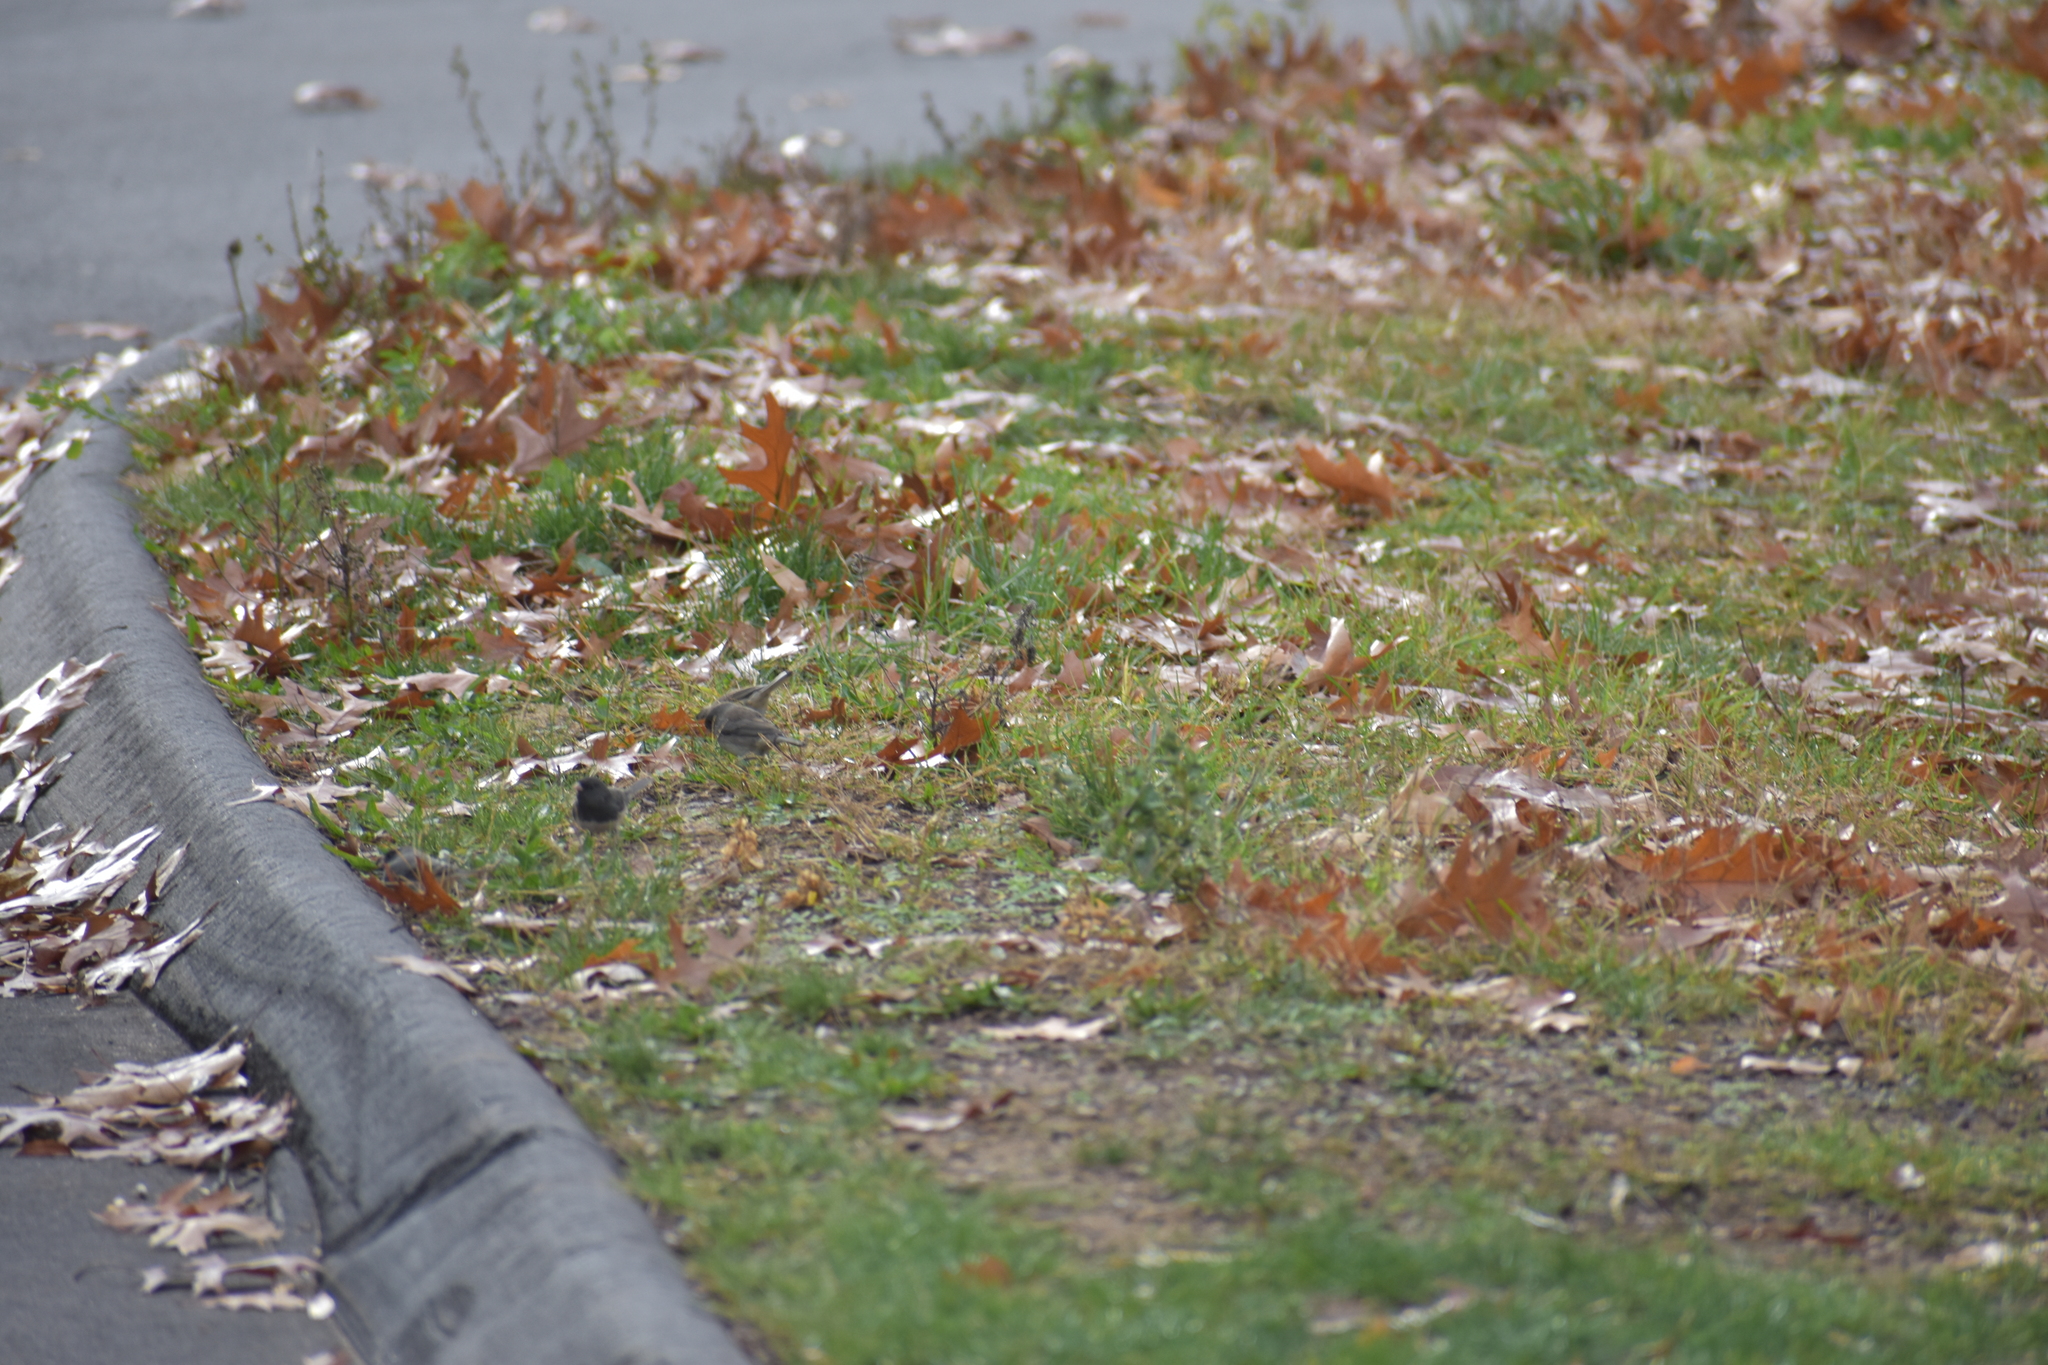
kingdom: Animalia
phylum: Chordata
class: Aves
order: Passeriformes
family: Passerellidae
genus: Junco
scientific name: Junco hyemalis
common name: Dark-eyed junco
